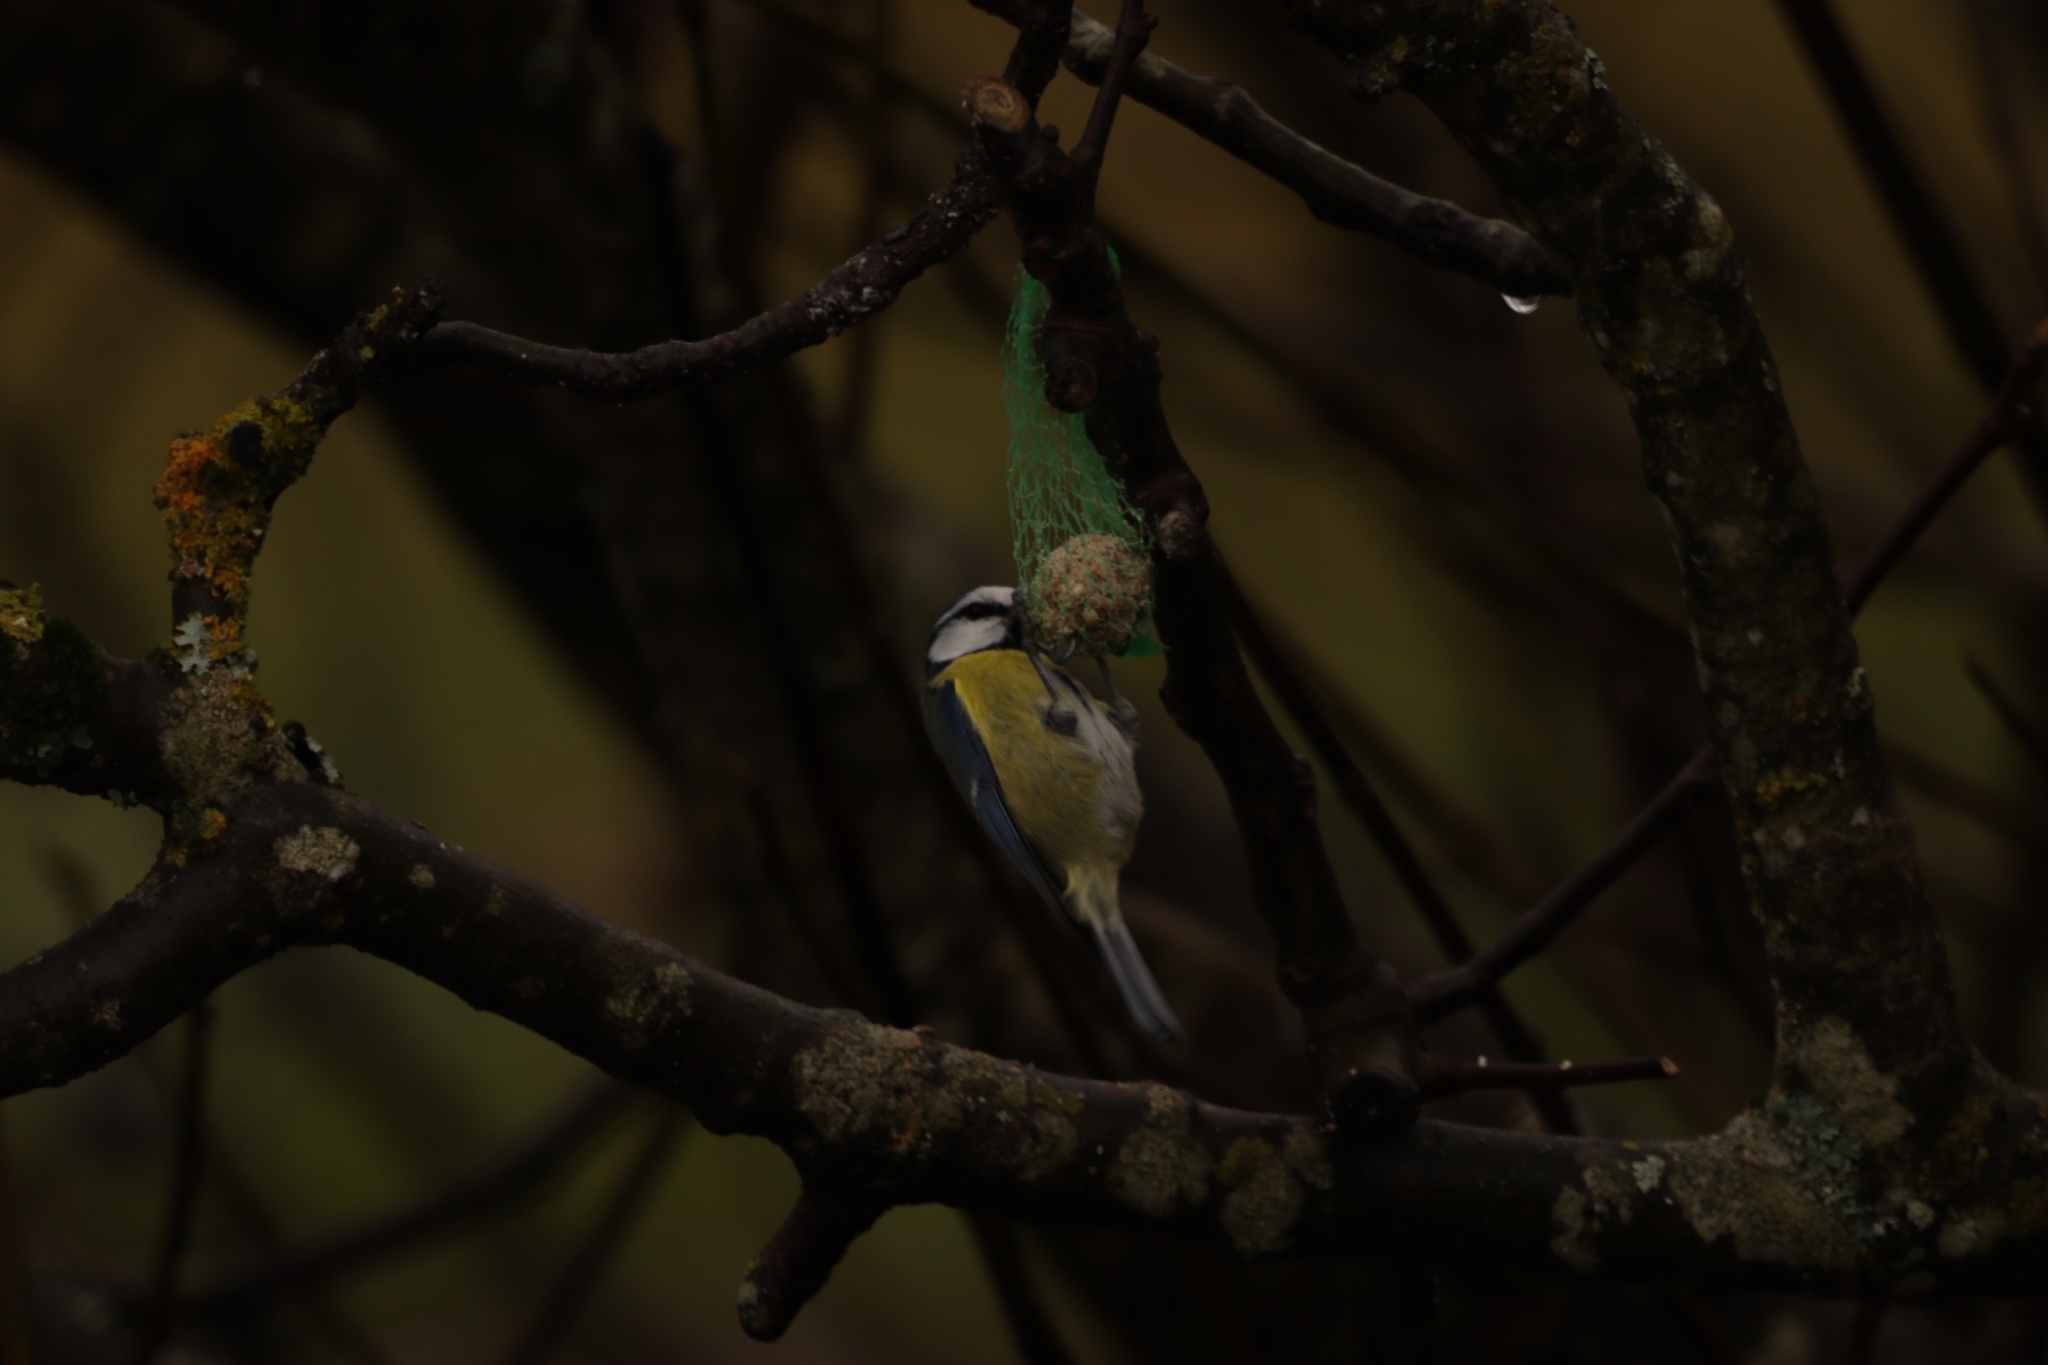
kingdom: Animalia
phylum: Chordata
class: Aves
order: Passeriformes
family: Paridae
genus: Cyanistes
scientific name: Cyanistes caeruleus
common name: Eurasian blue tit
